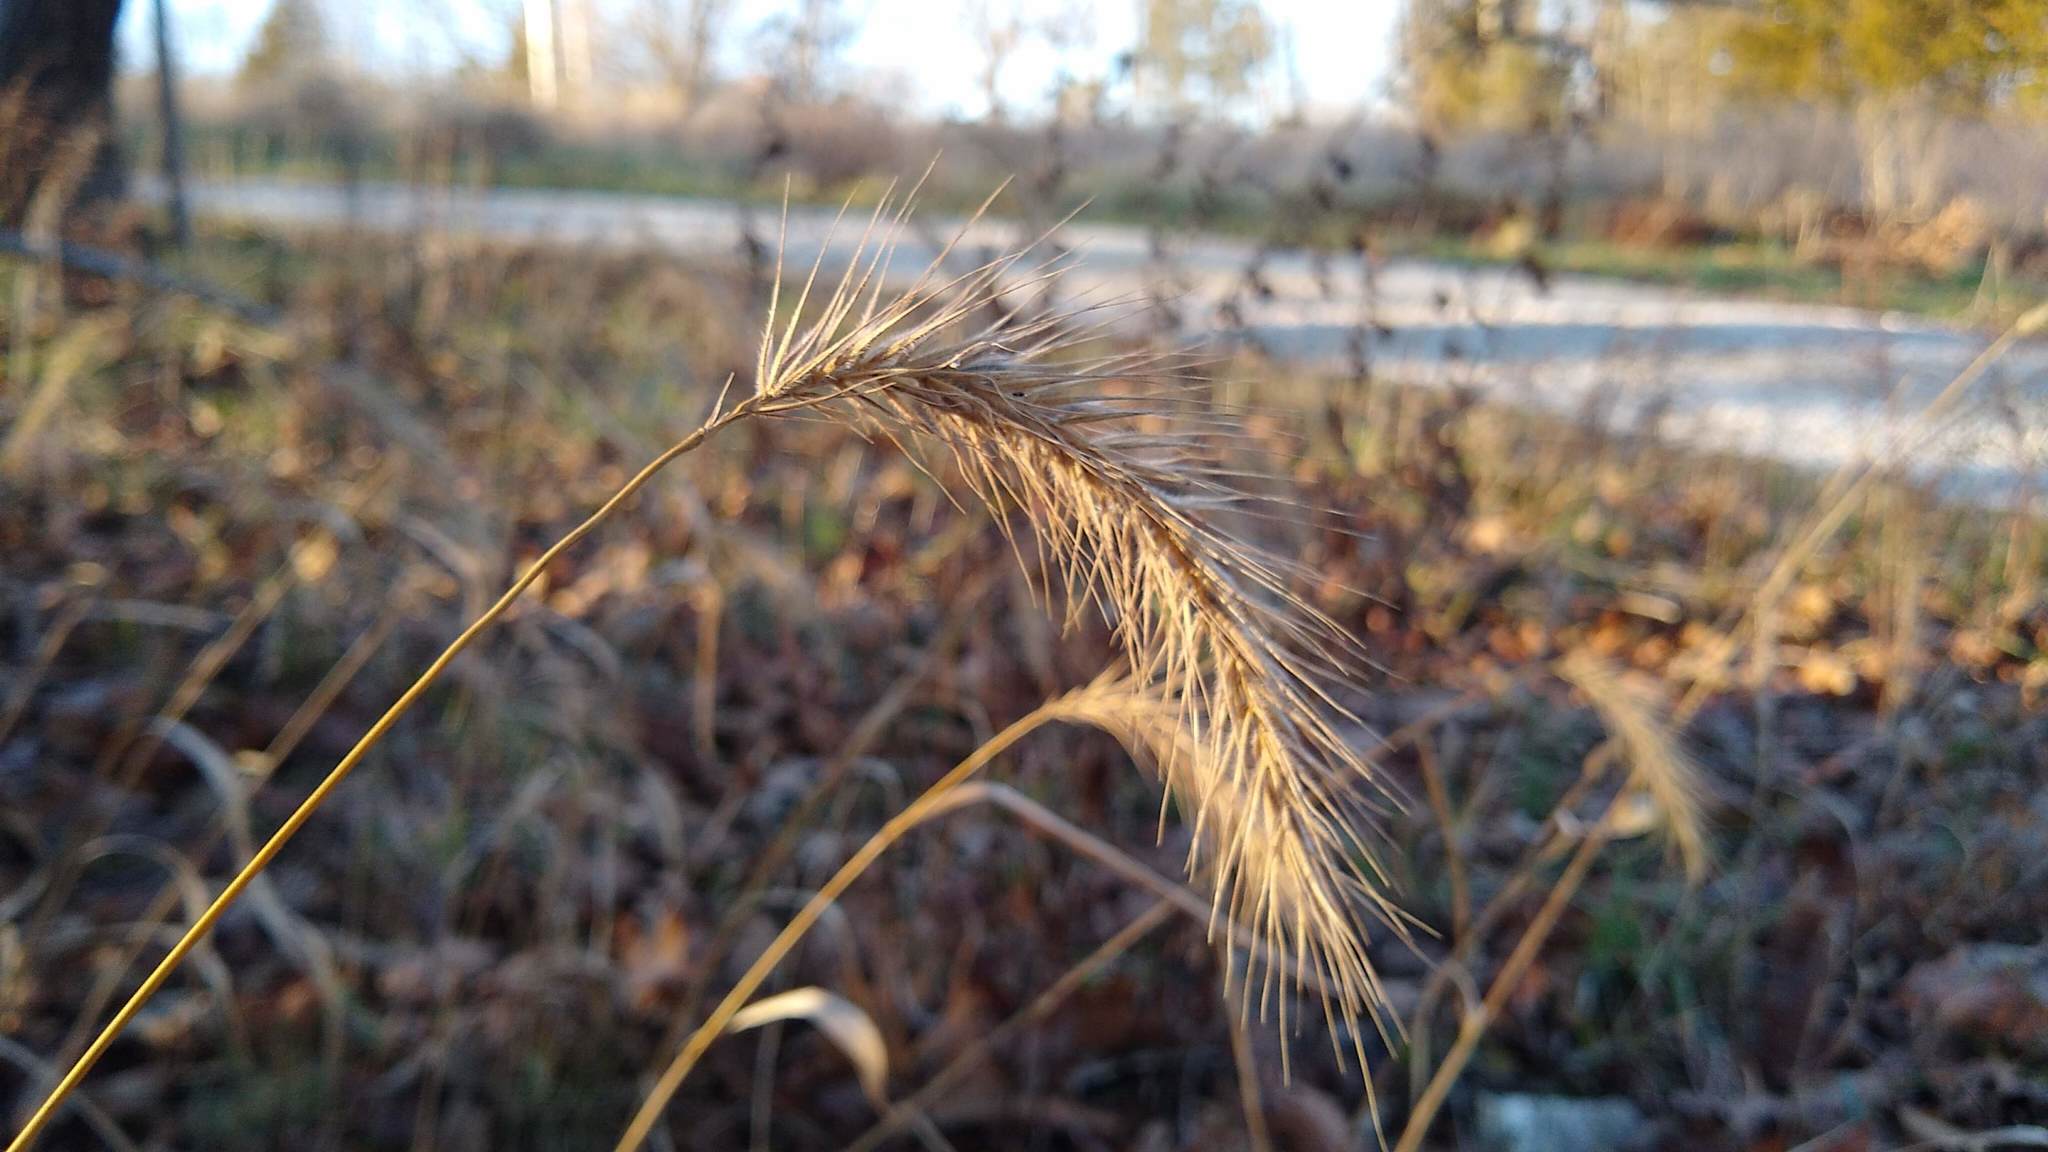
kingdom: Plantae
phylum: Tracheophyta
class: Liliopsida
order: Poales
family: Poaceae
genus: Elymus
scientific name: Elymus villosus
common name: Downy wild rye
